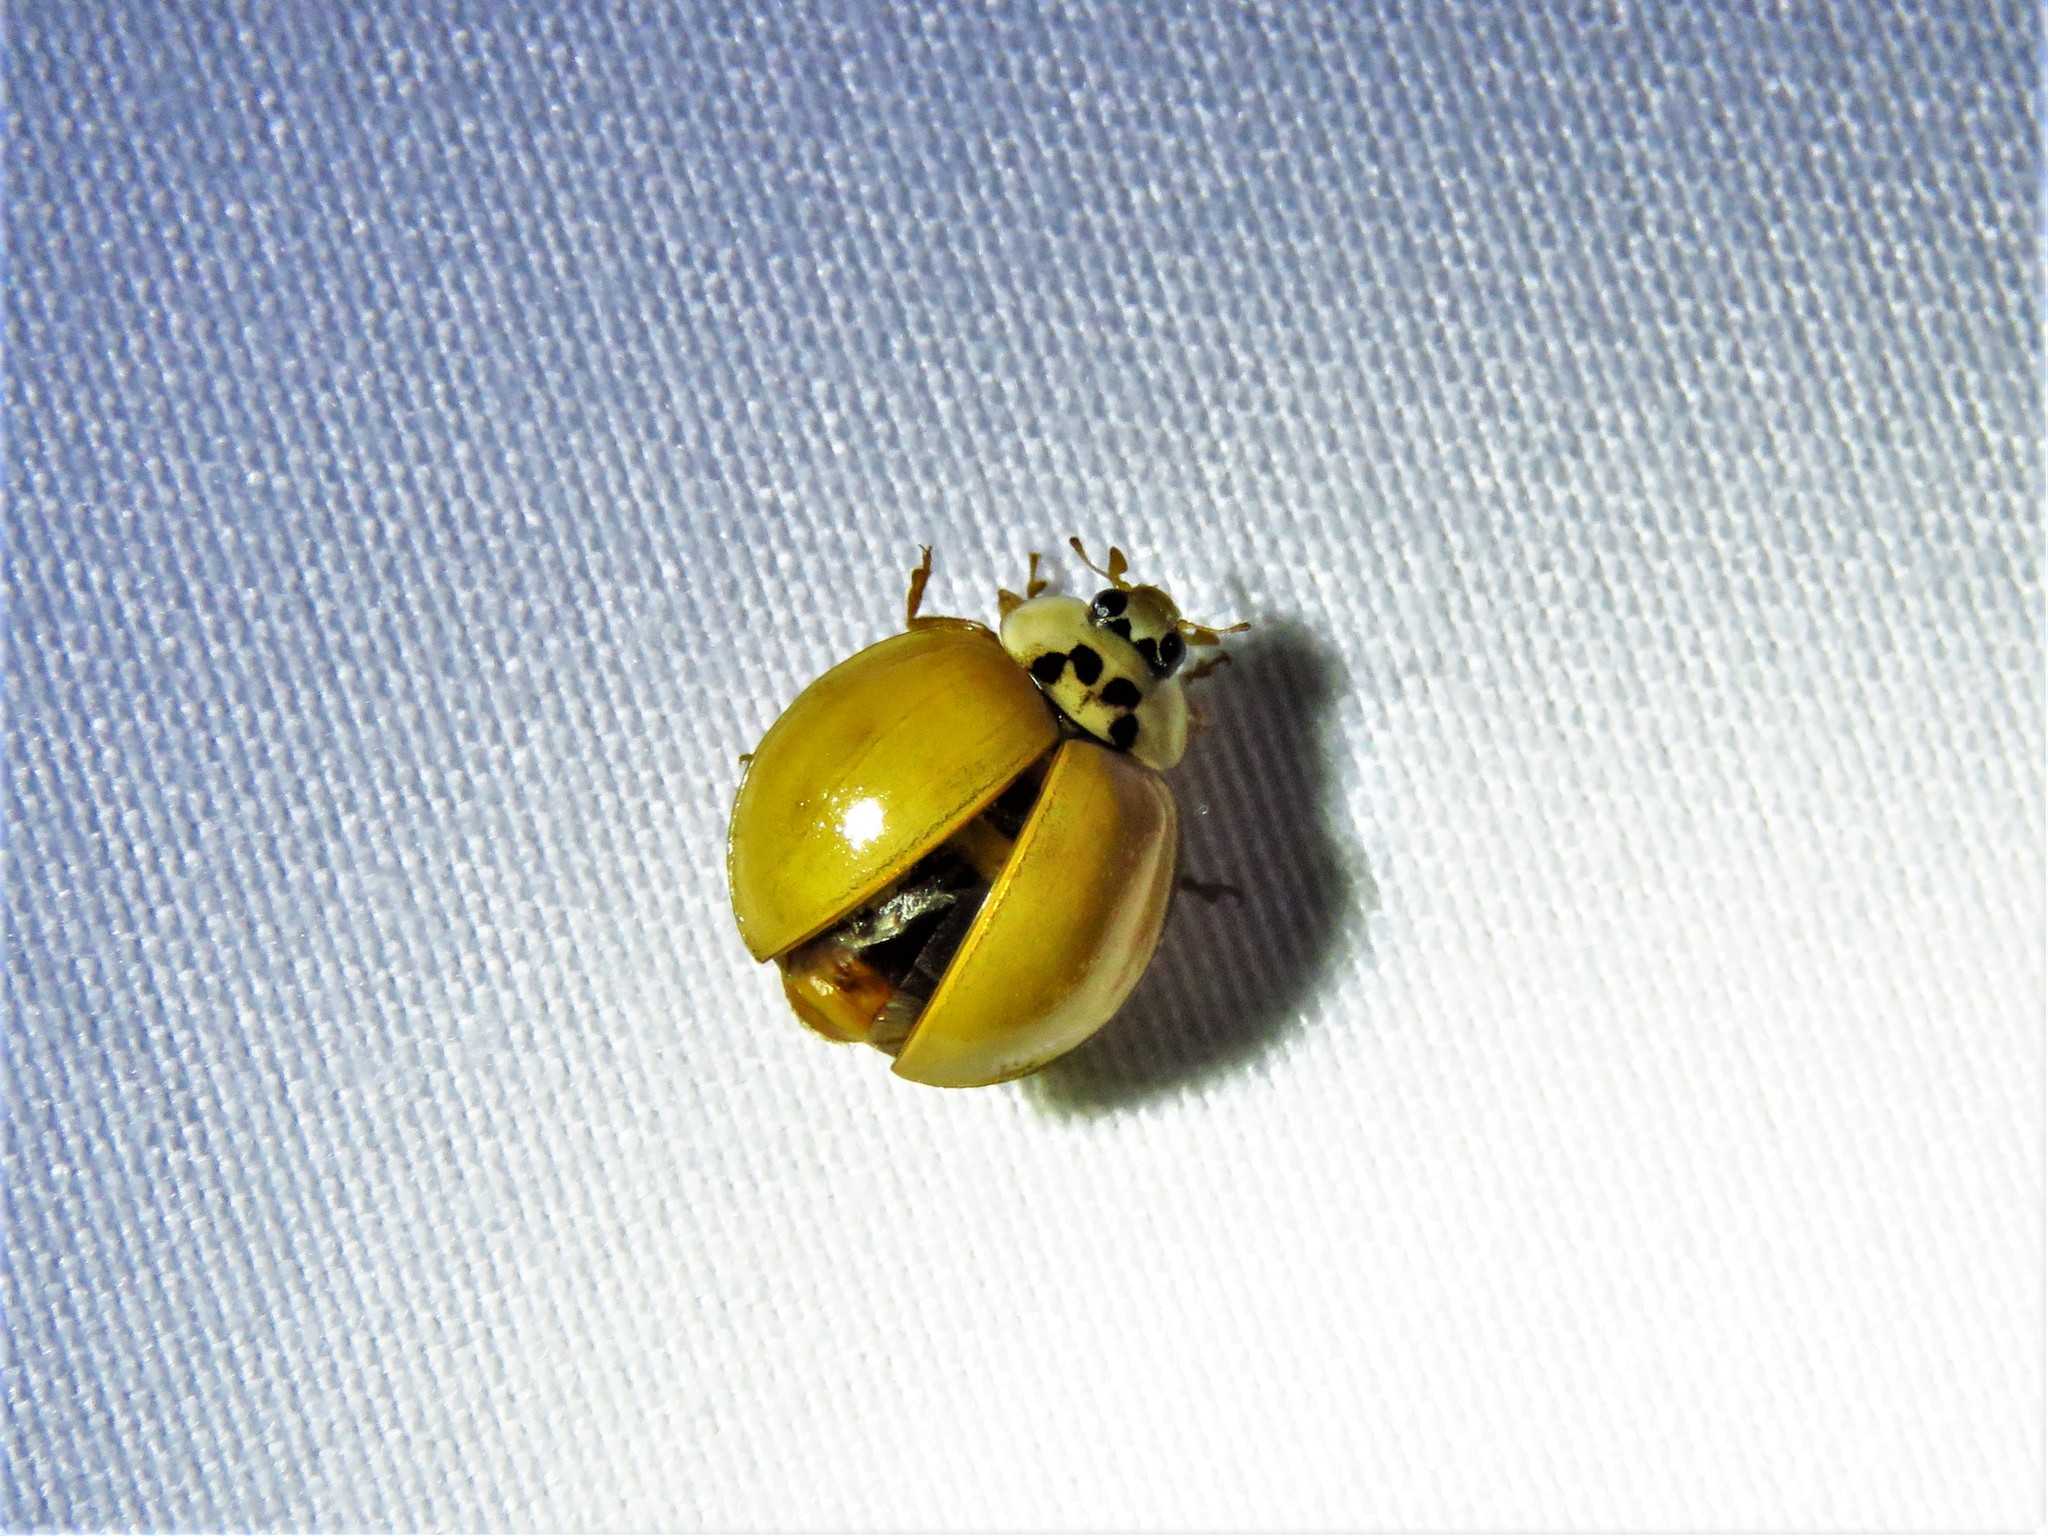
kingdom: Animalia
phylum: Arthropoda
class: Insecta
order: Coleoptera
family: Coccinellidae
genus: Harmonia
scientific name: Harmonia axyridis
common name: Harlequin ladybird
